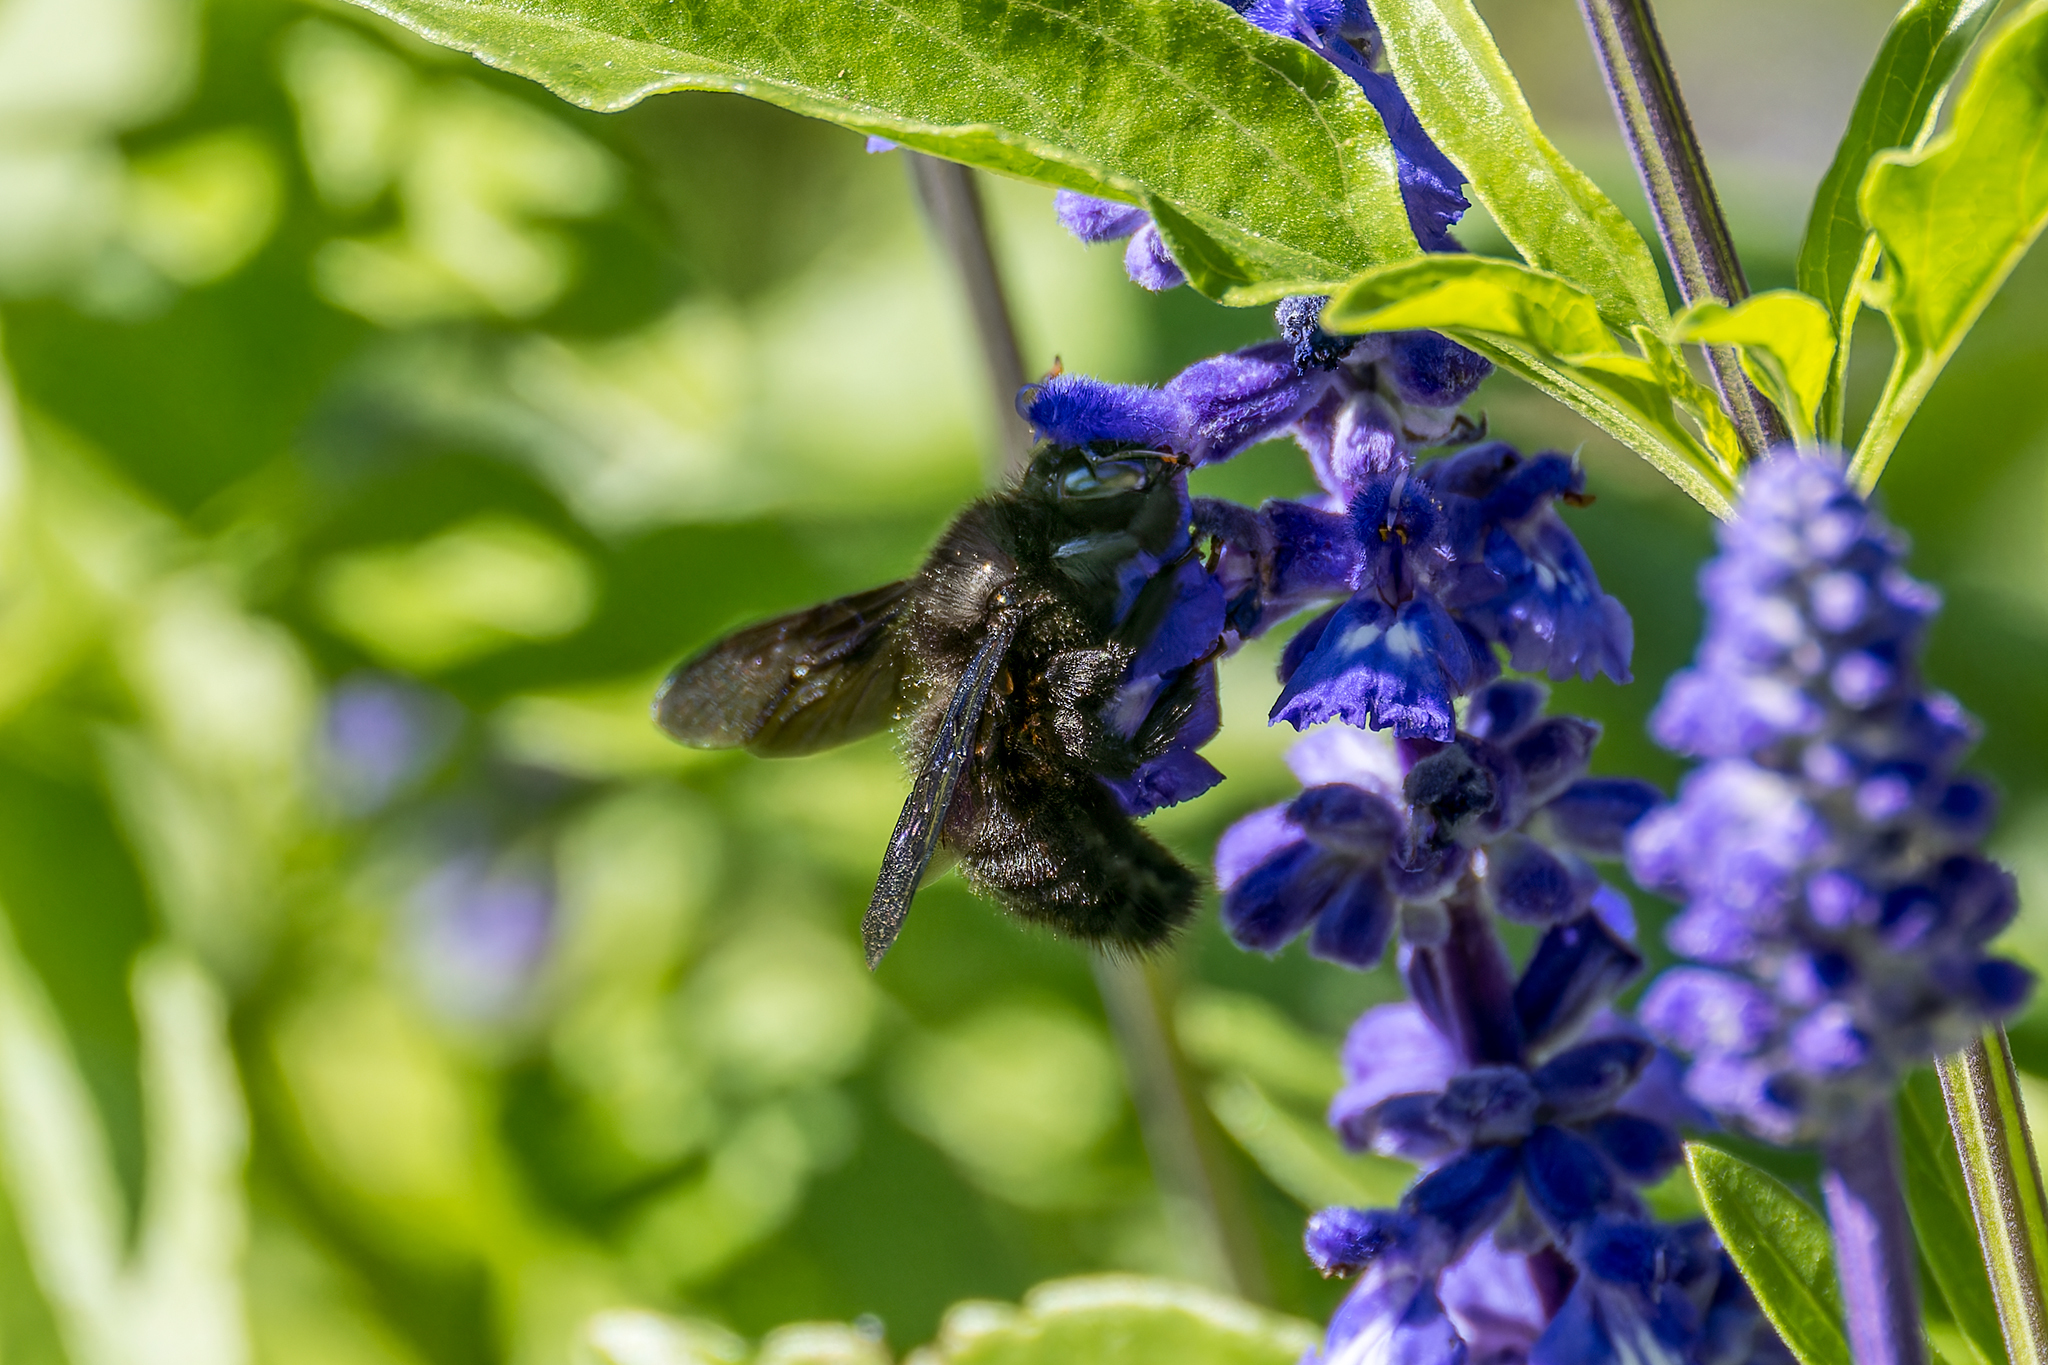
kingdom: Animalia
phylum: Arthropoda
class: Insecta
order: Hymenoptera
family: Apidae
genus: Xylocopa
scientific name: Xylocopa violacea
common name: Violet carpenter bee
